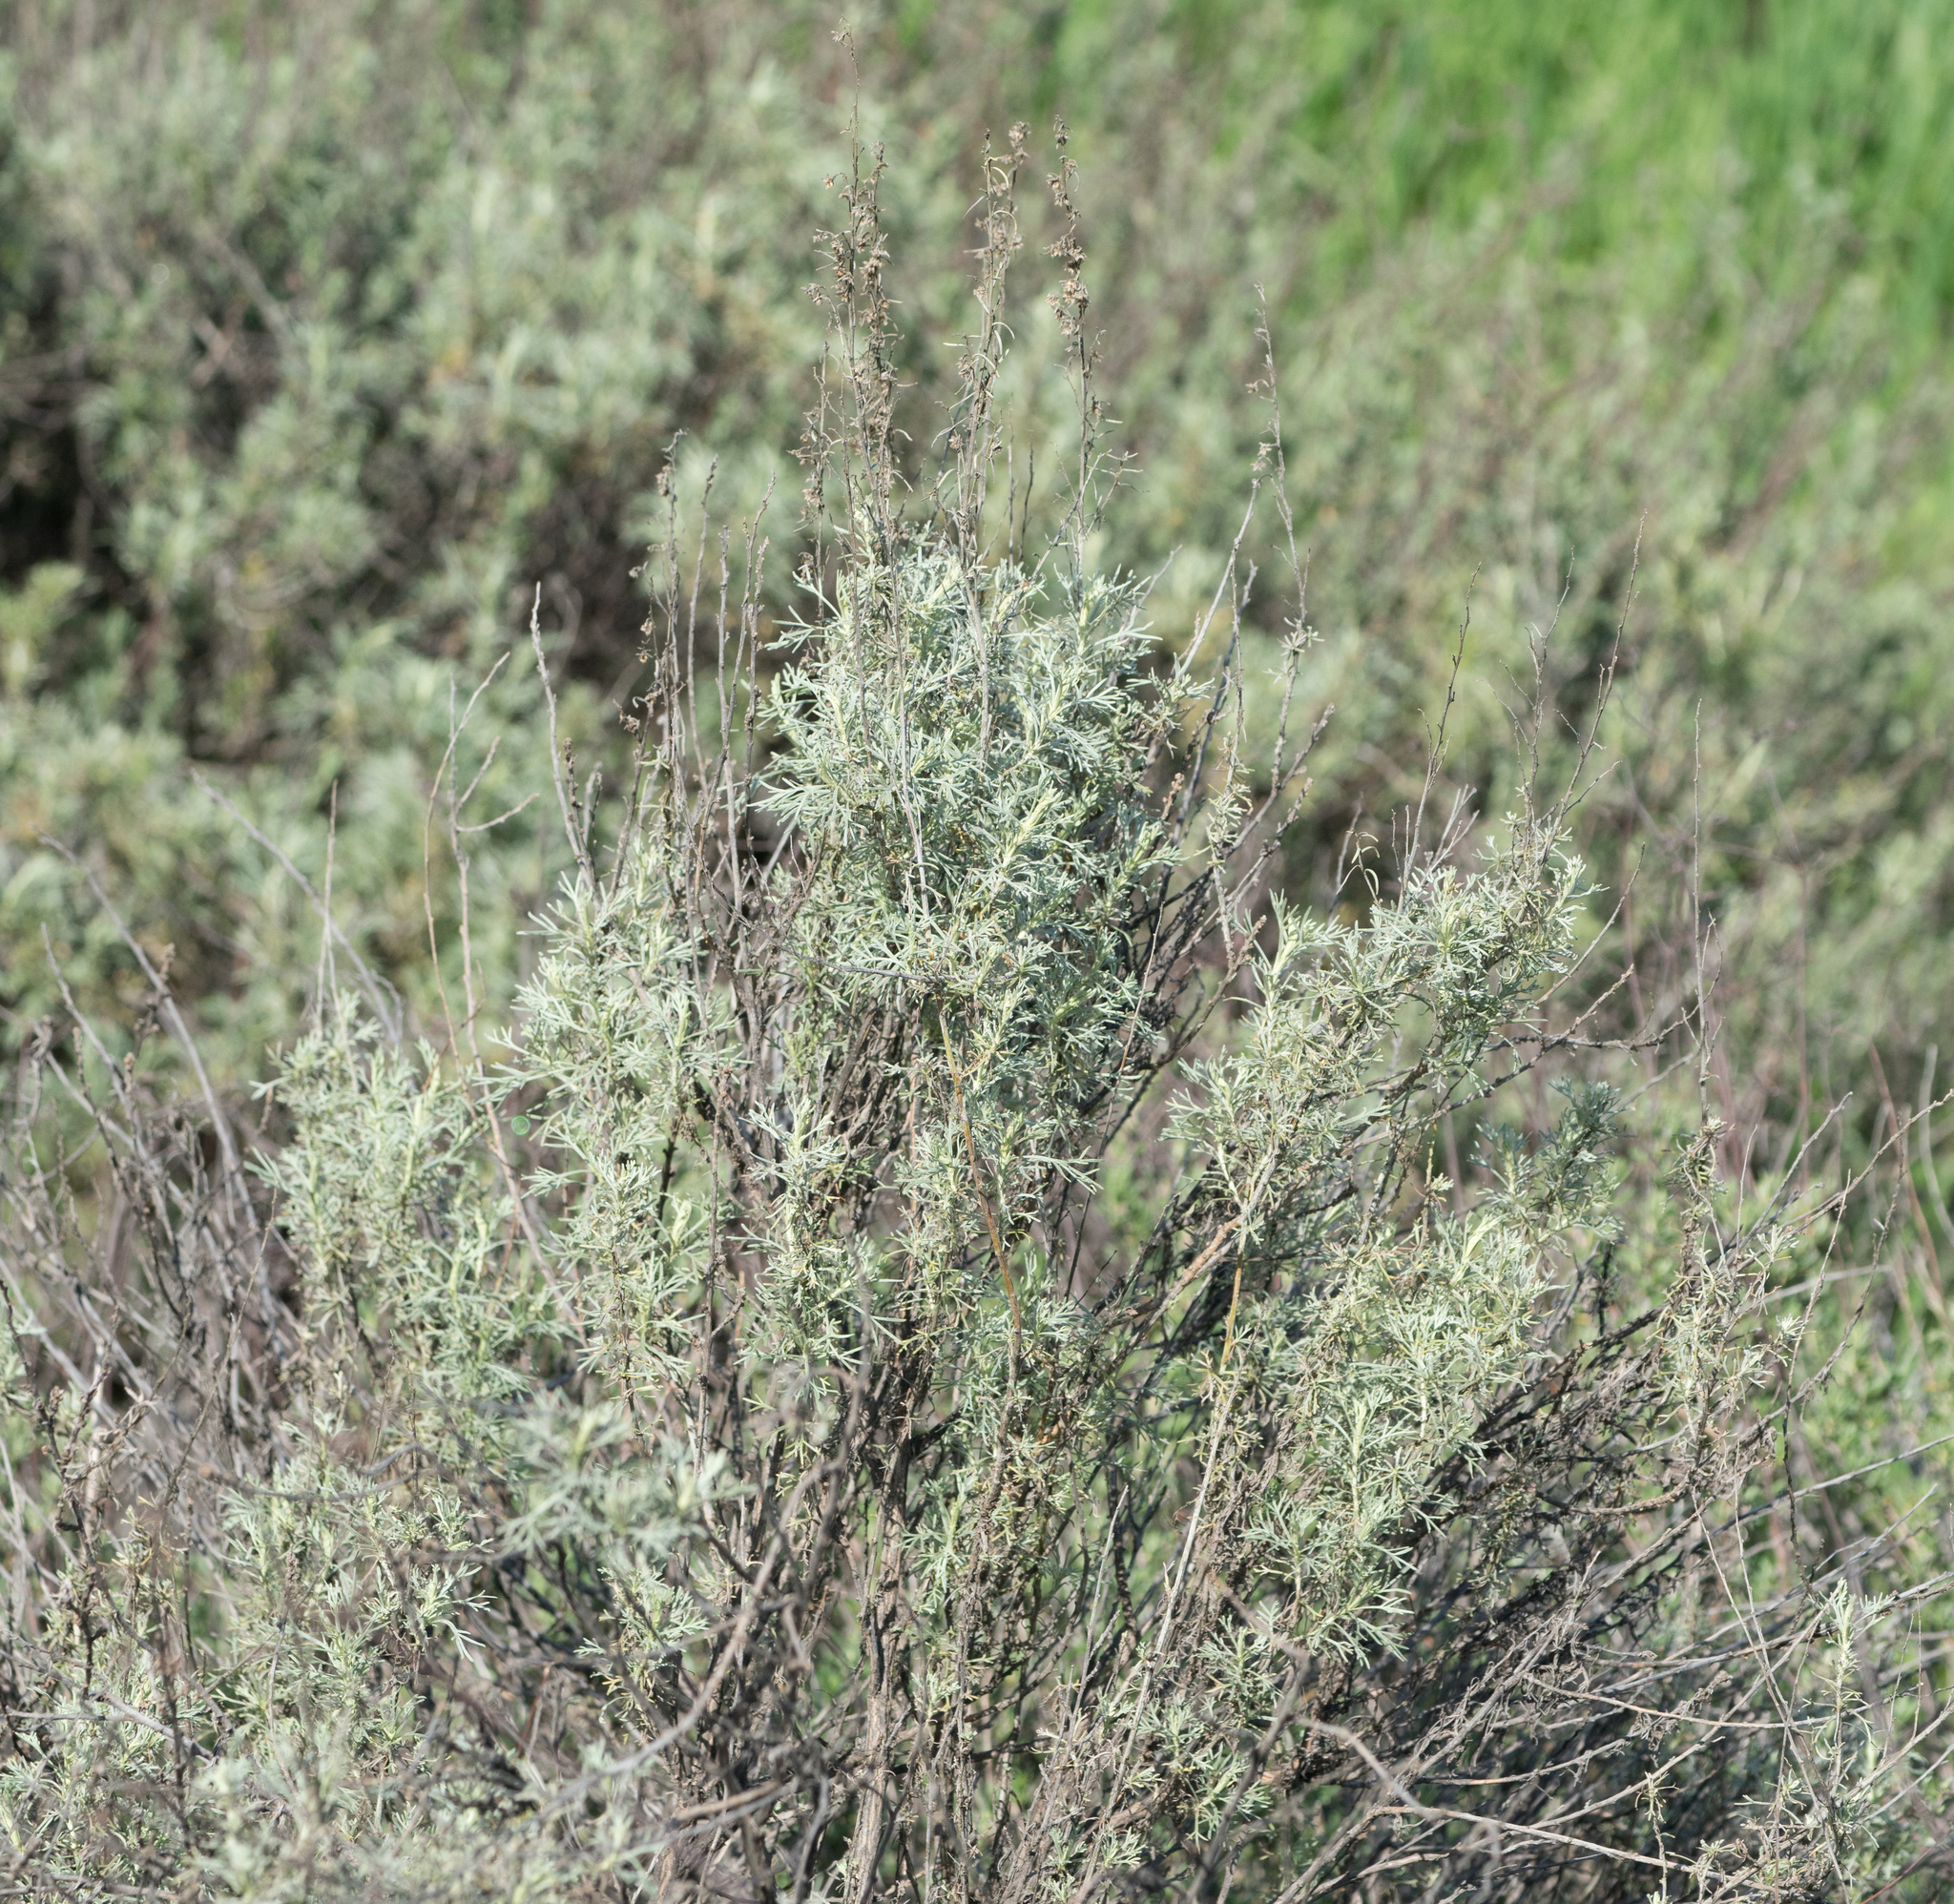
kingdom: Plantae
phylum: Tracheophyta
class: Magnoliopsida
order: Asterales
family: Asteraceae
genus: Artemisia
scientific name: Artemisia californica
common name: California sagebrush
